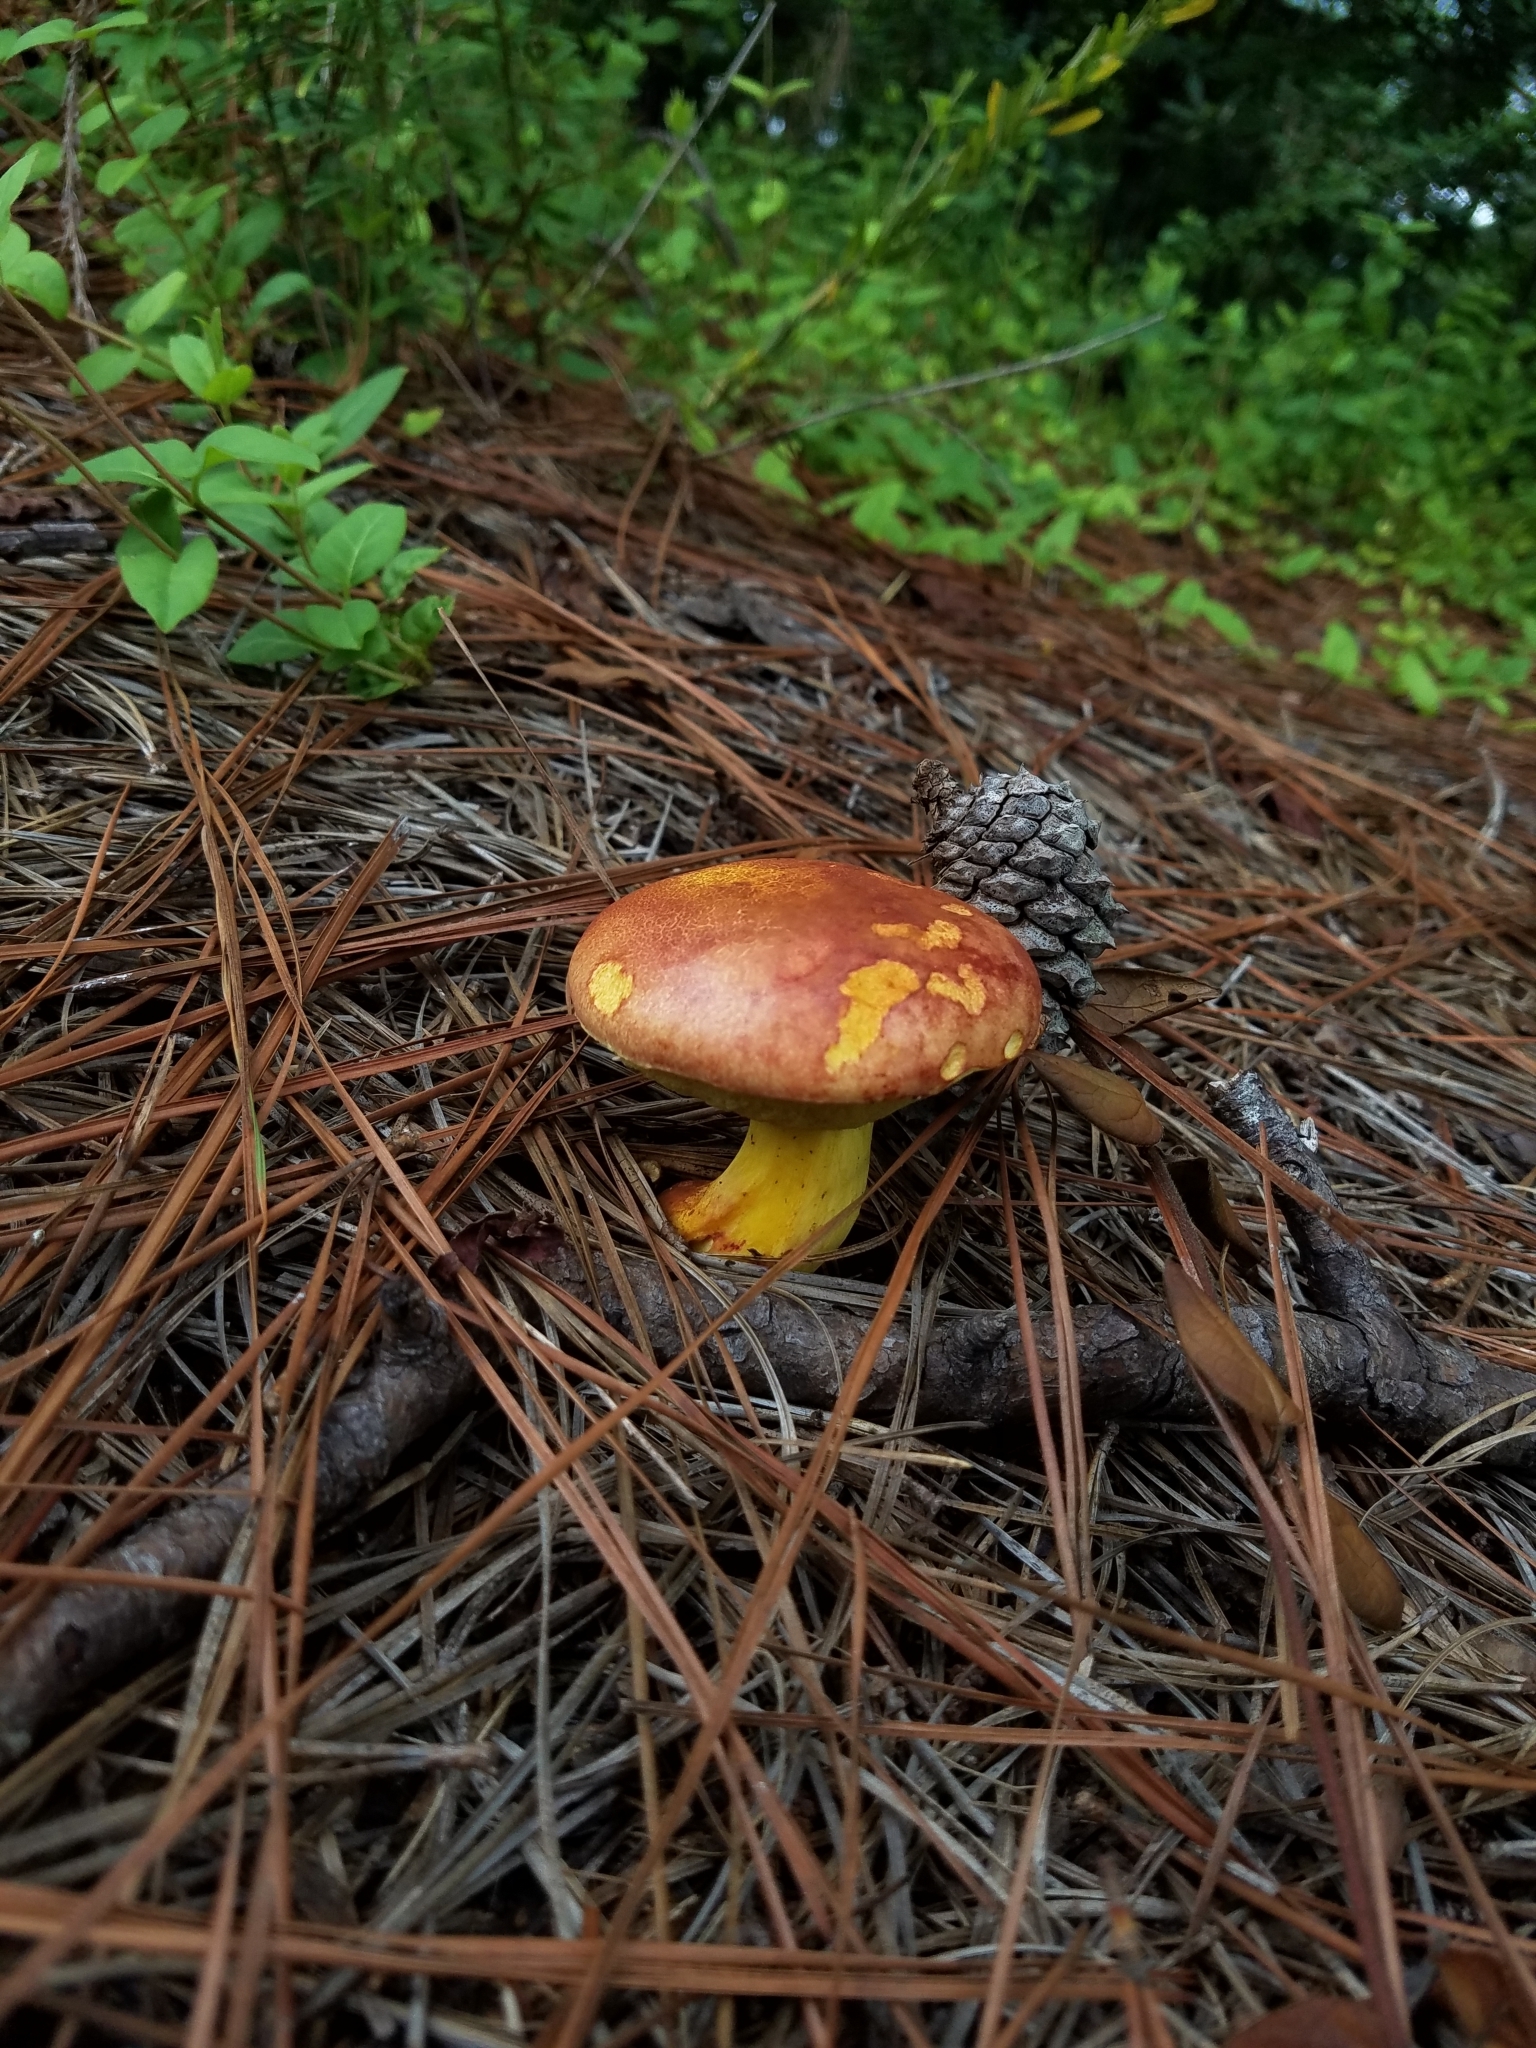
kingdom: Fungi
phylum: Basidiomycota
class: Agaricomycetes
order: Boletales
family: Boletaceae
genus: Baorangia
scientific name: Baorangia bicolor
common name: Two-colored bolete
